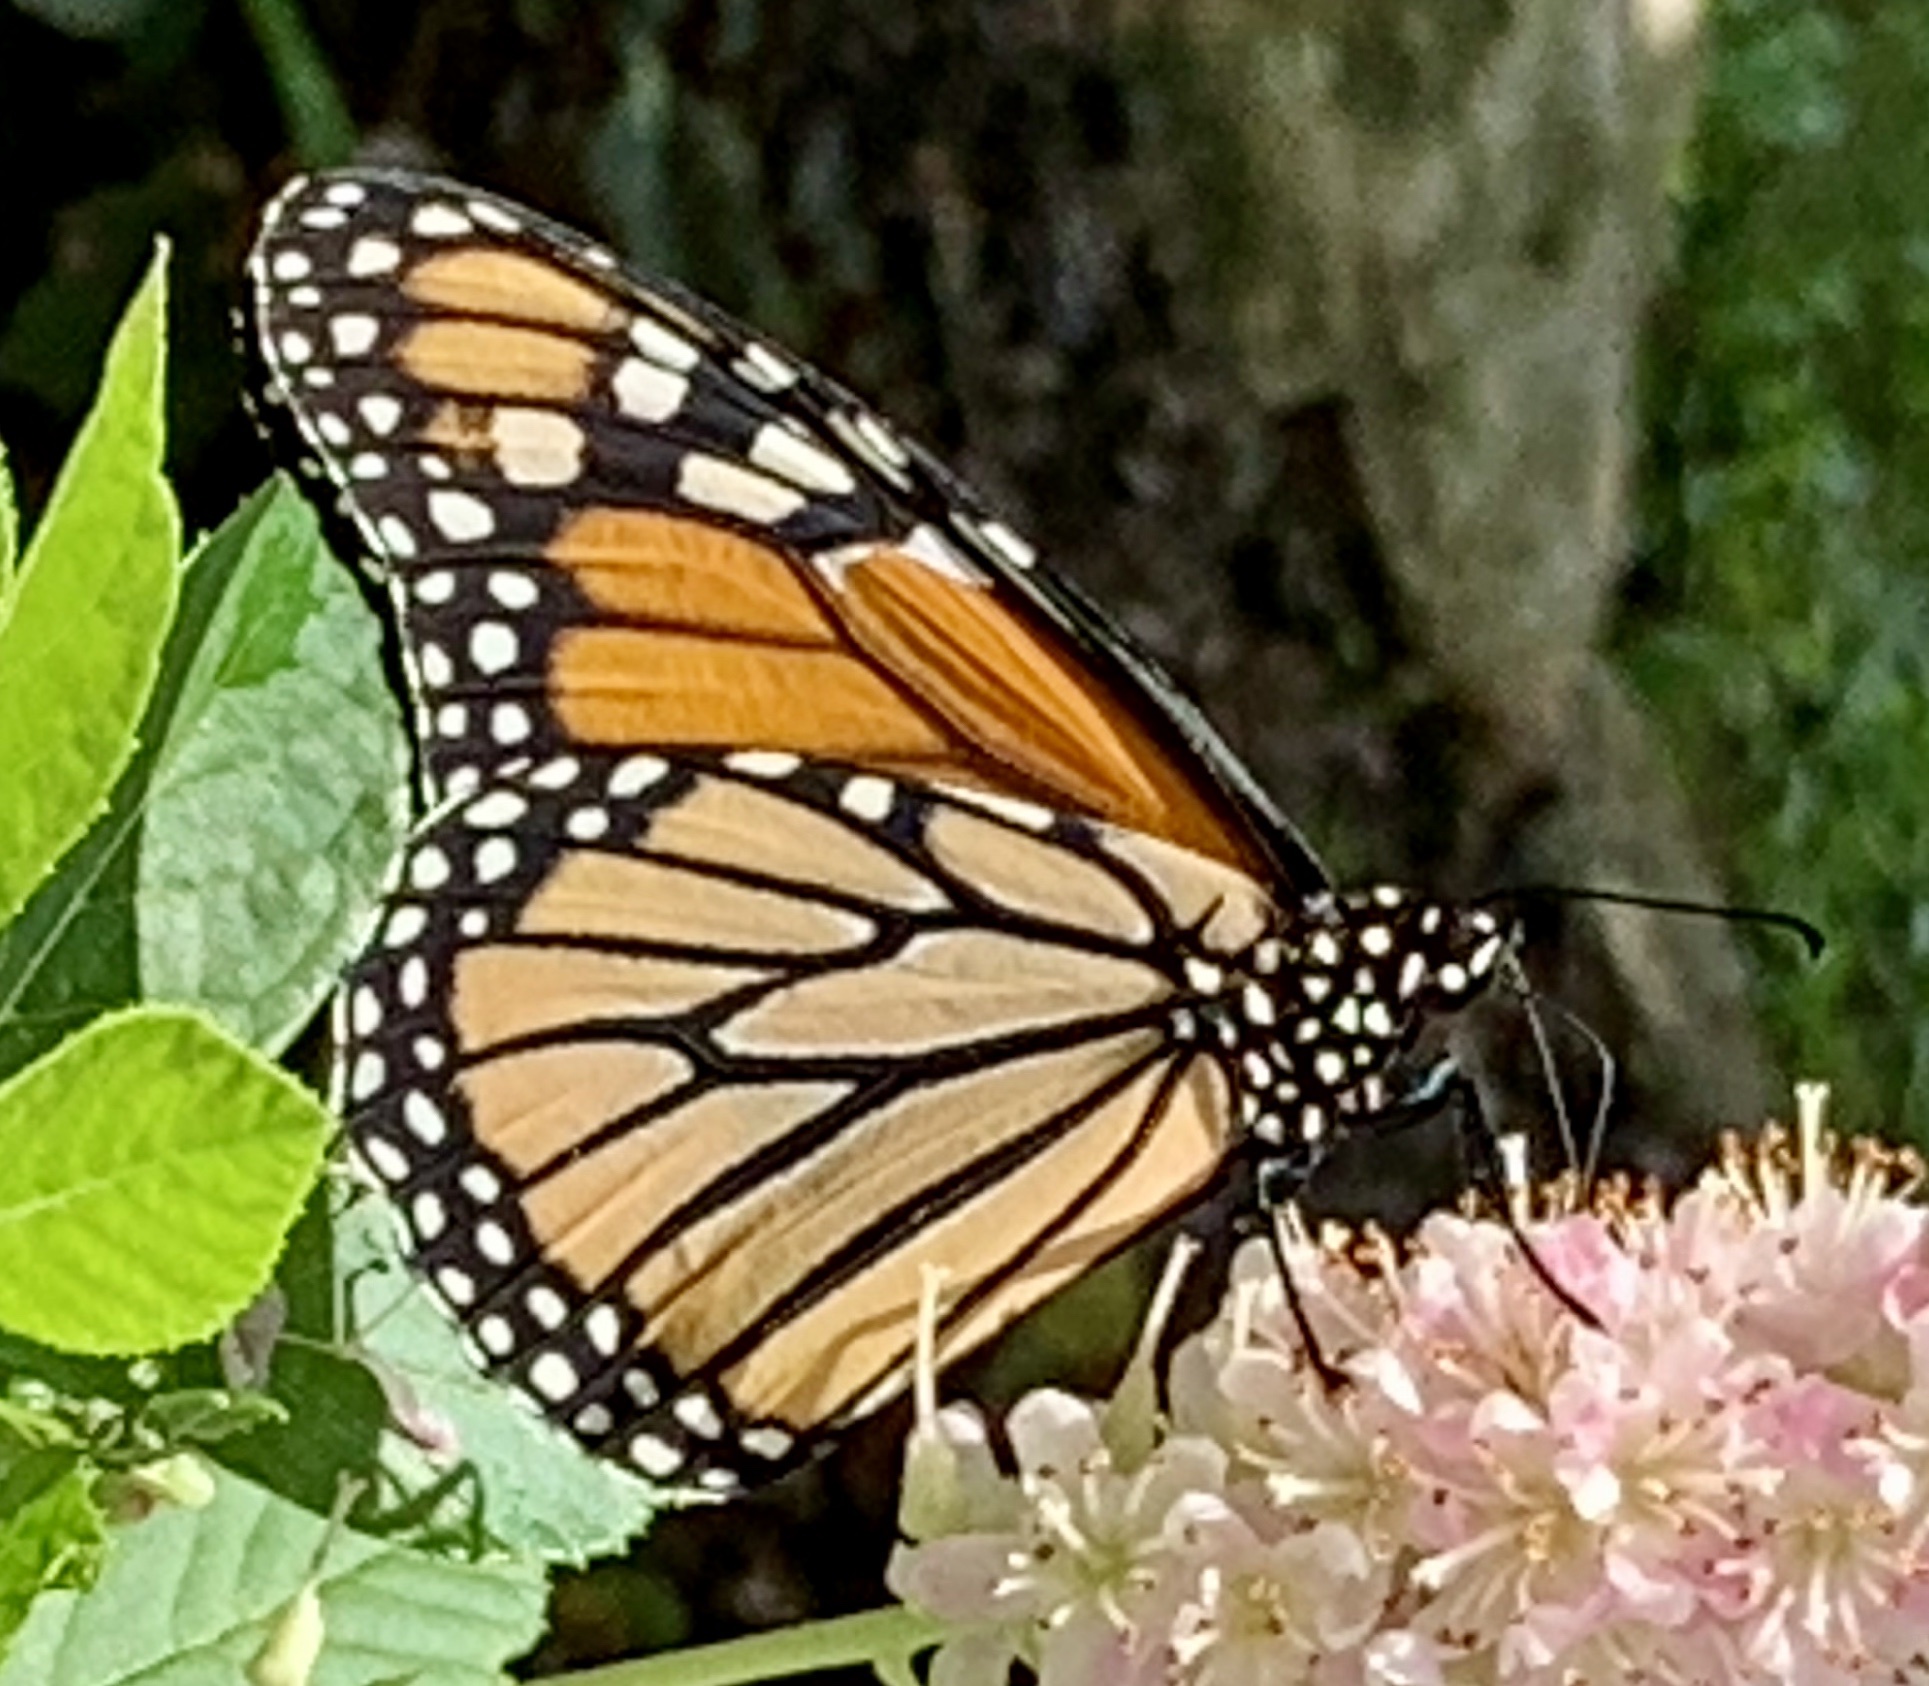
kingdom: Animalia
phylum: Arthropoda
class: Insecta
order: Lepidoptera
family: Nymphalidae
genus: Danaus
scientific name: Danaus plexippus
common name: Monarch
